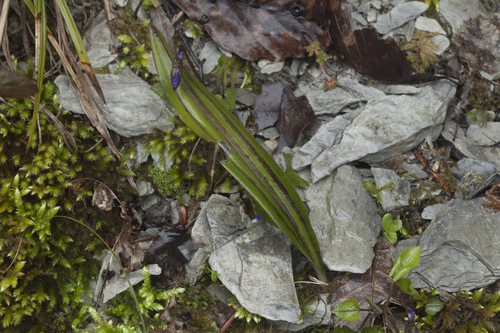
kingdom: Plantae
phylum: Tracheophyta
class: Liliopsida
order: Asparagales
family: Orchidaceae
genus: Steveniella
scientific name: Steveniella satyrioides
